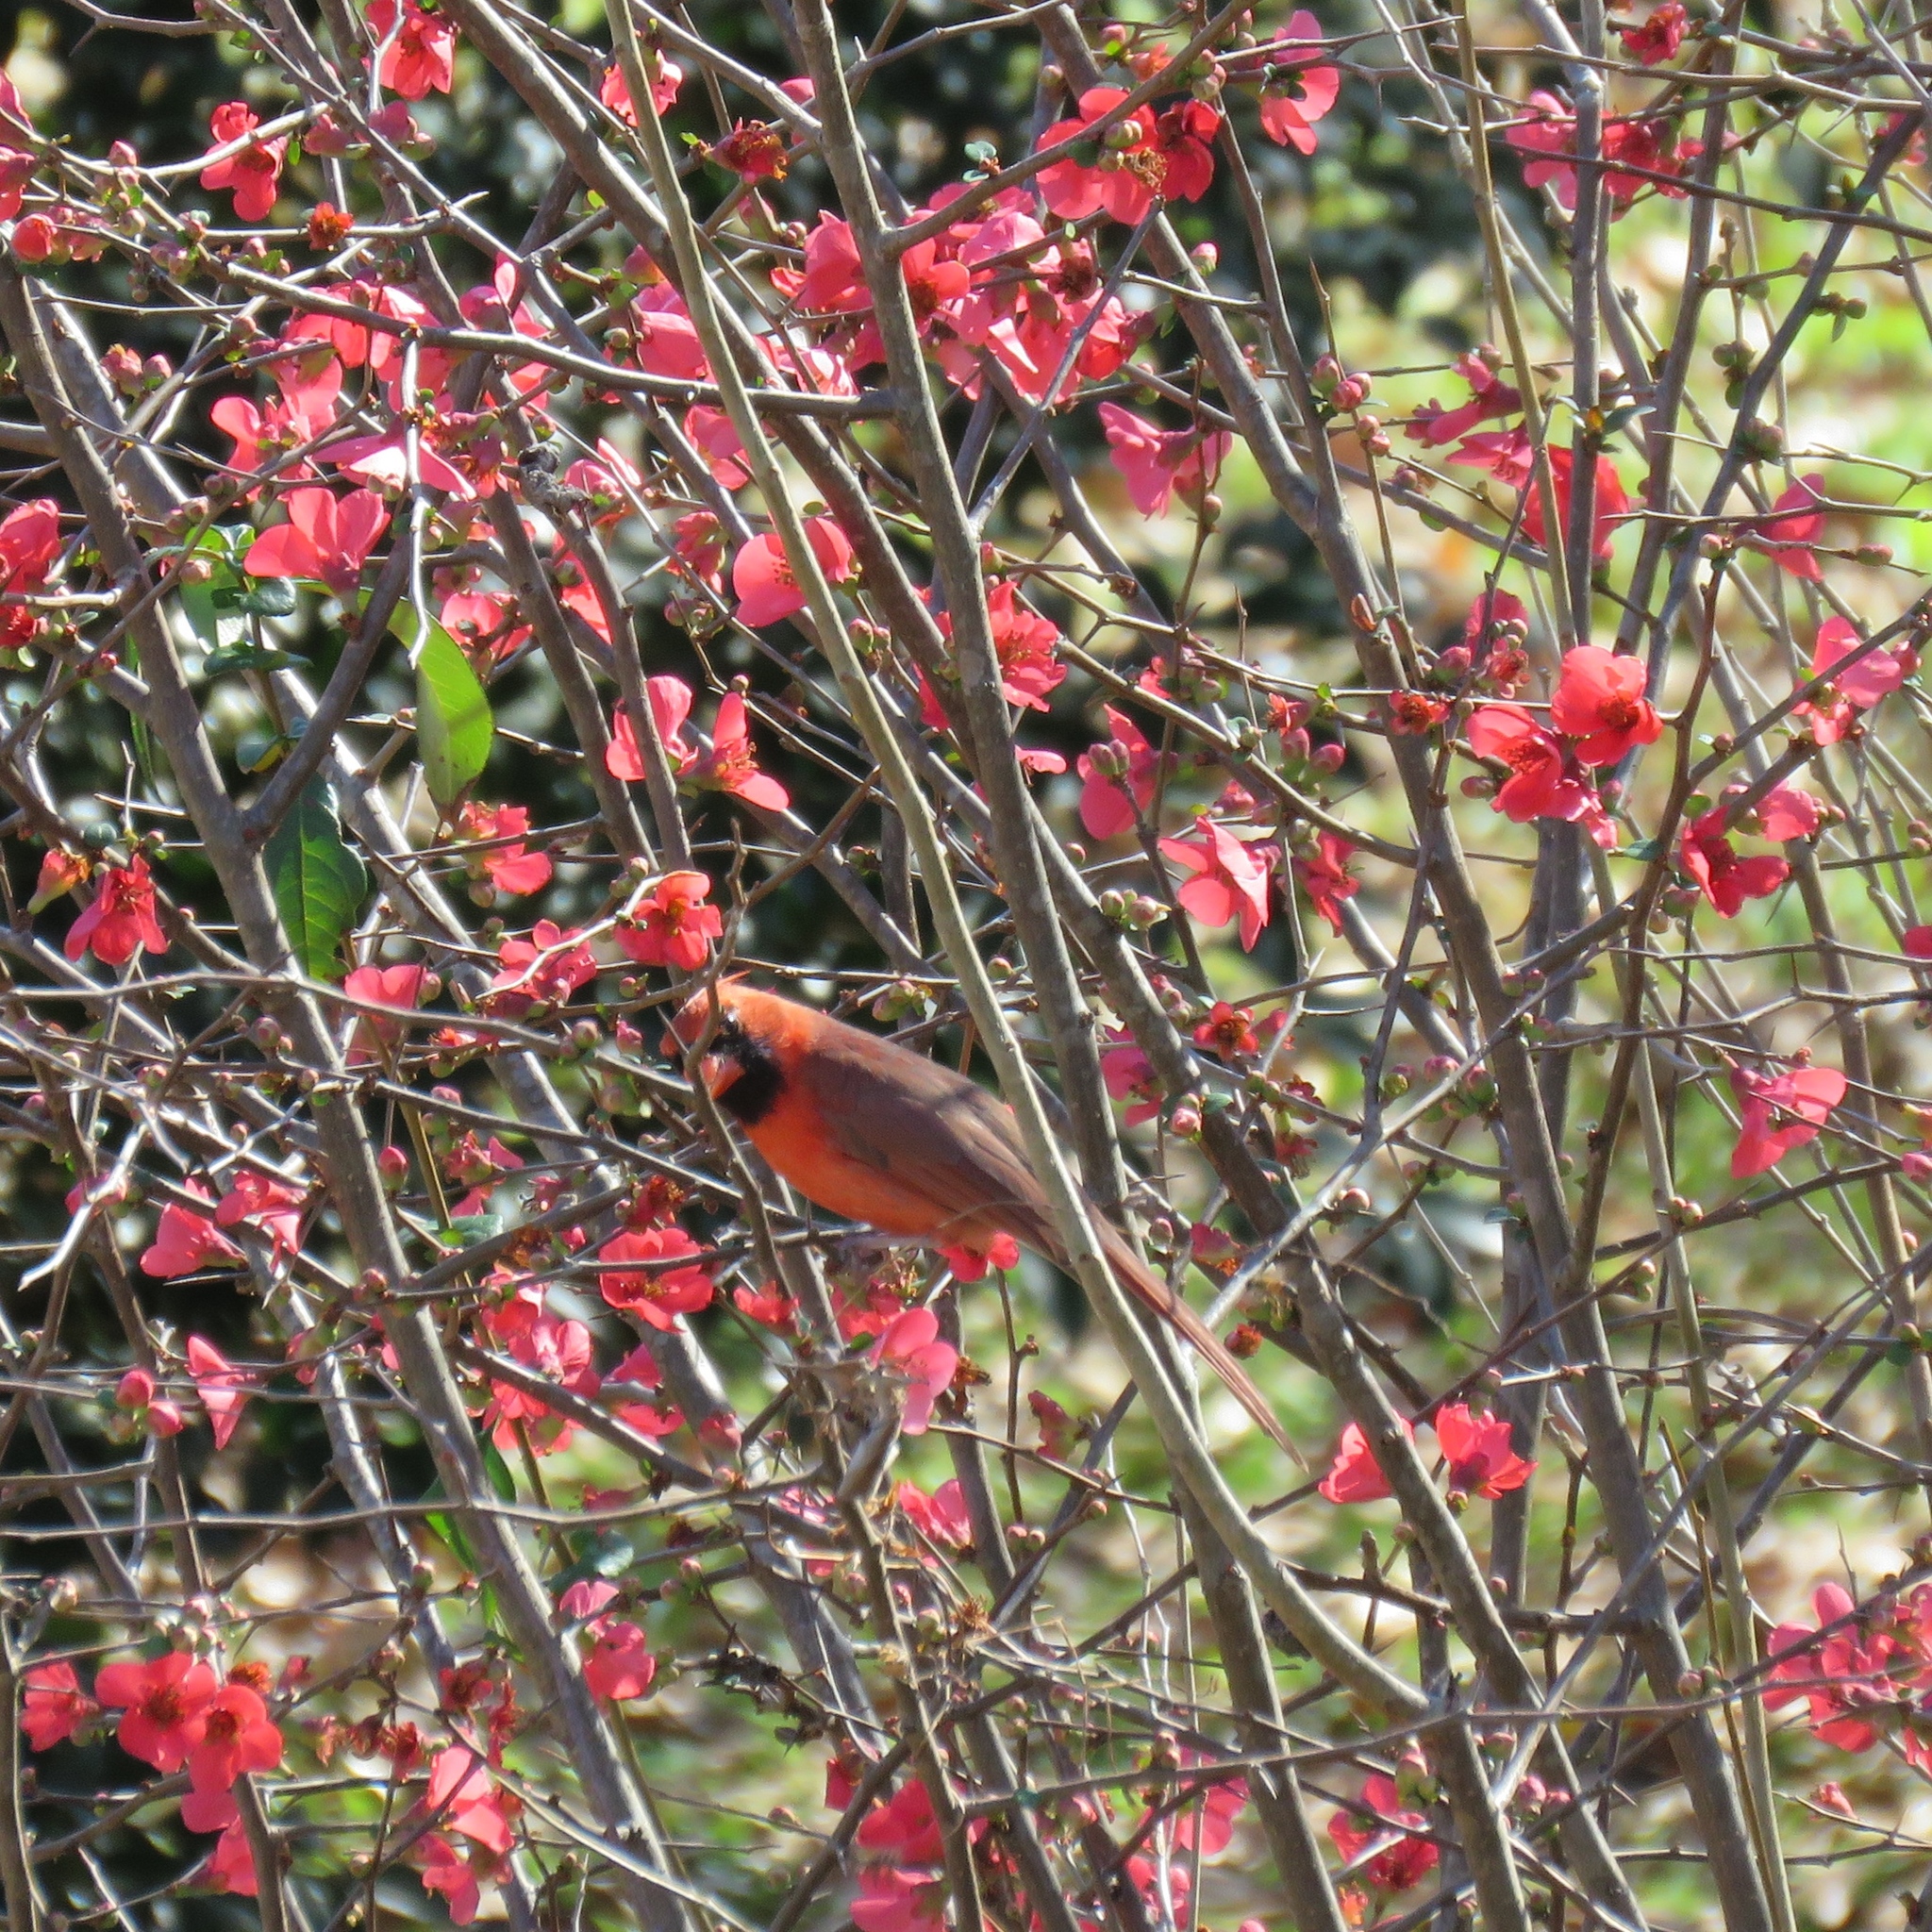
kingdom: Animalia
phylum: Chordata
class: Aves
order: Passeriformes
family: Cardinalidae
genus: Cardinalis
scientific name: Cardinalis cardinalis
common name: Northern cardinal
